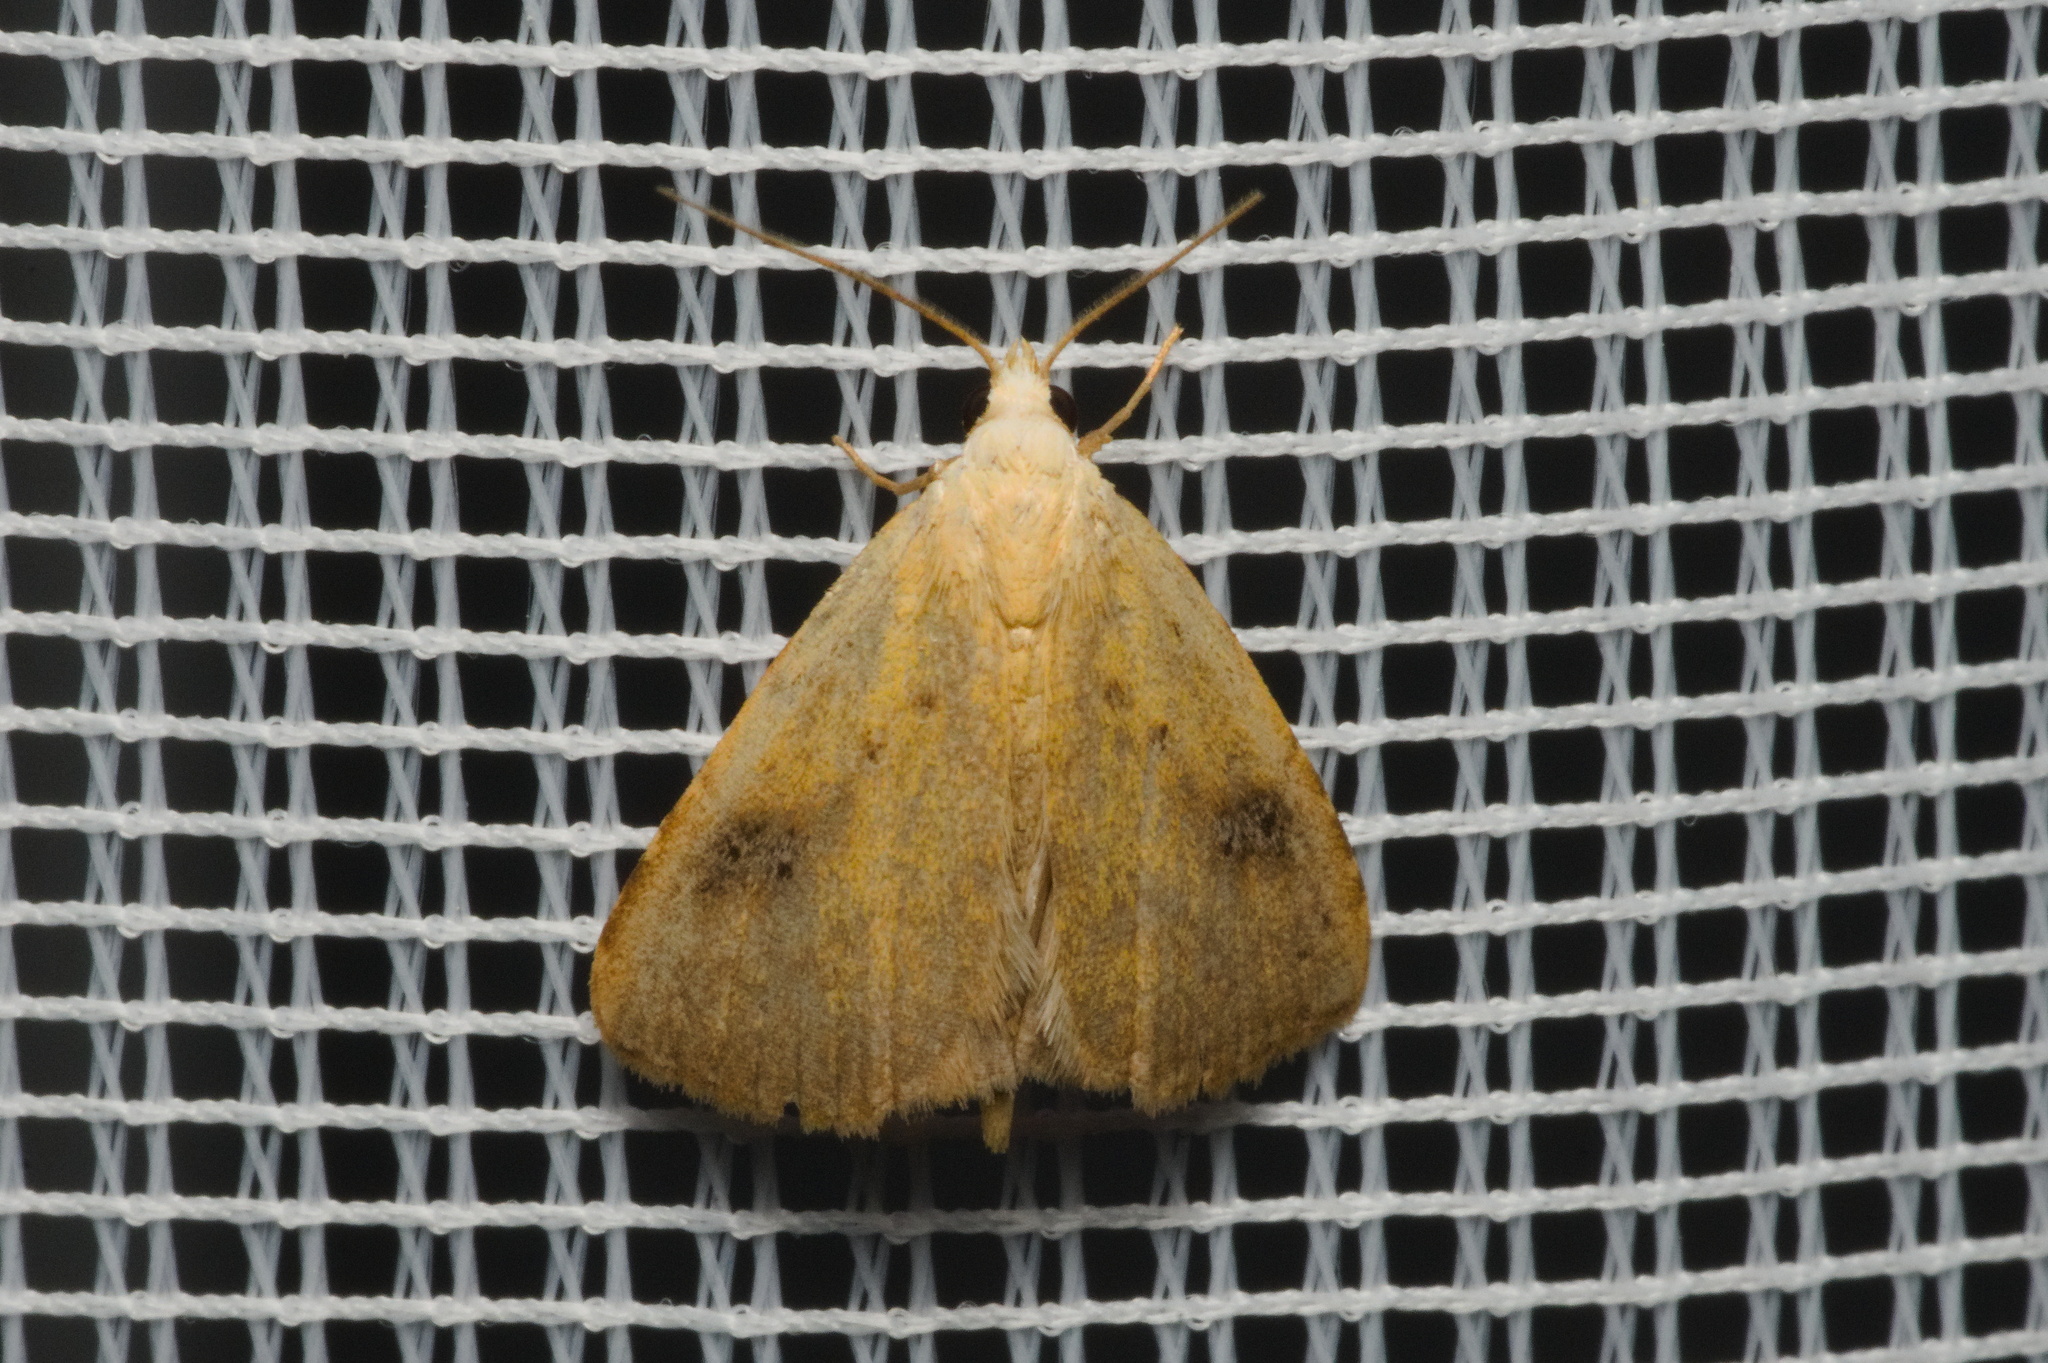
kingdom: Animalia
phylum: Arthropoda
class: Insecta
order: Lepidoptera
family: Erebidae
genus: Rivula
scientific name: Rivula sericealis
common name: Straw dot
